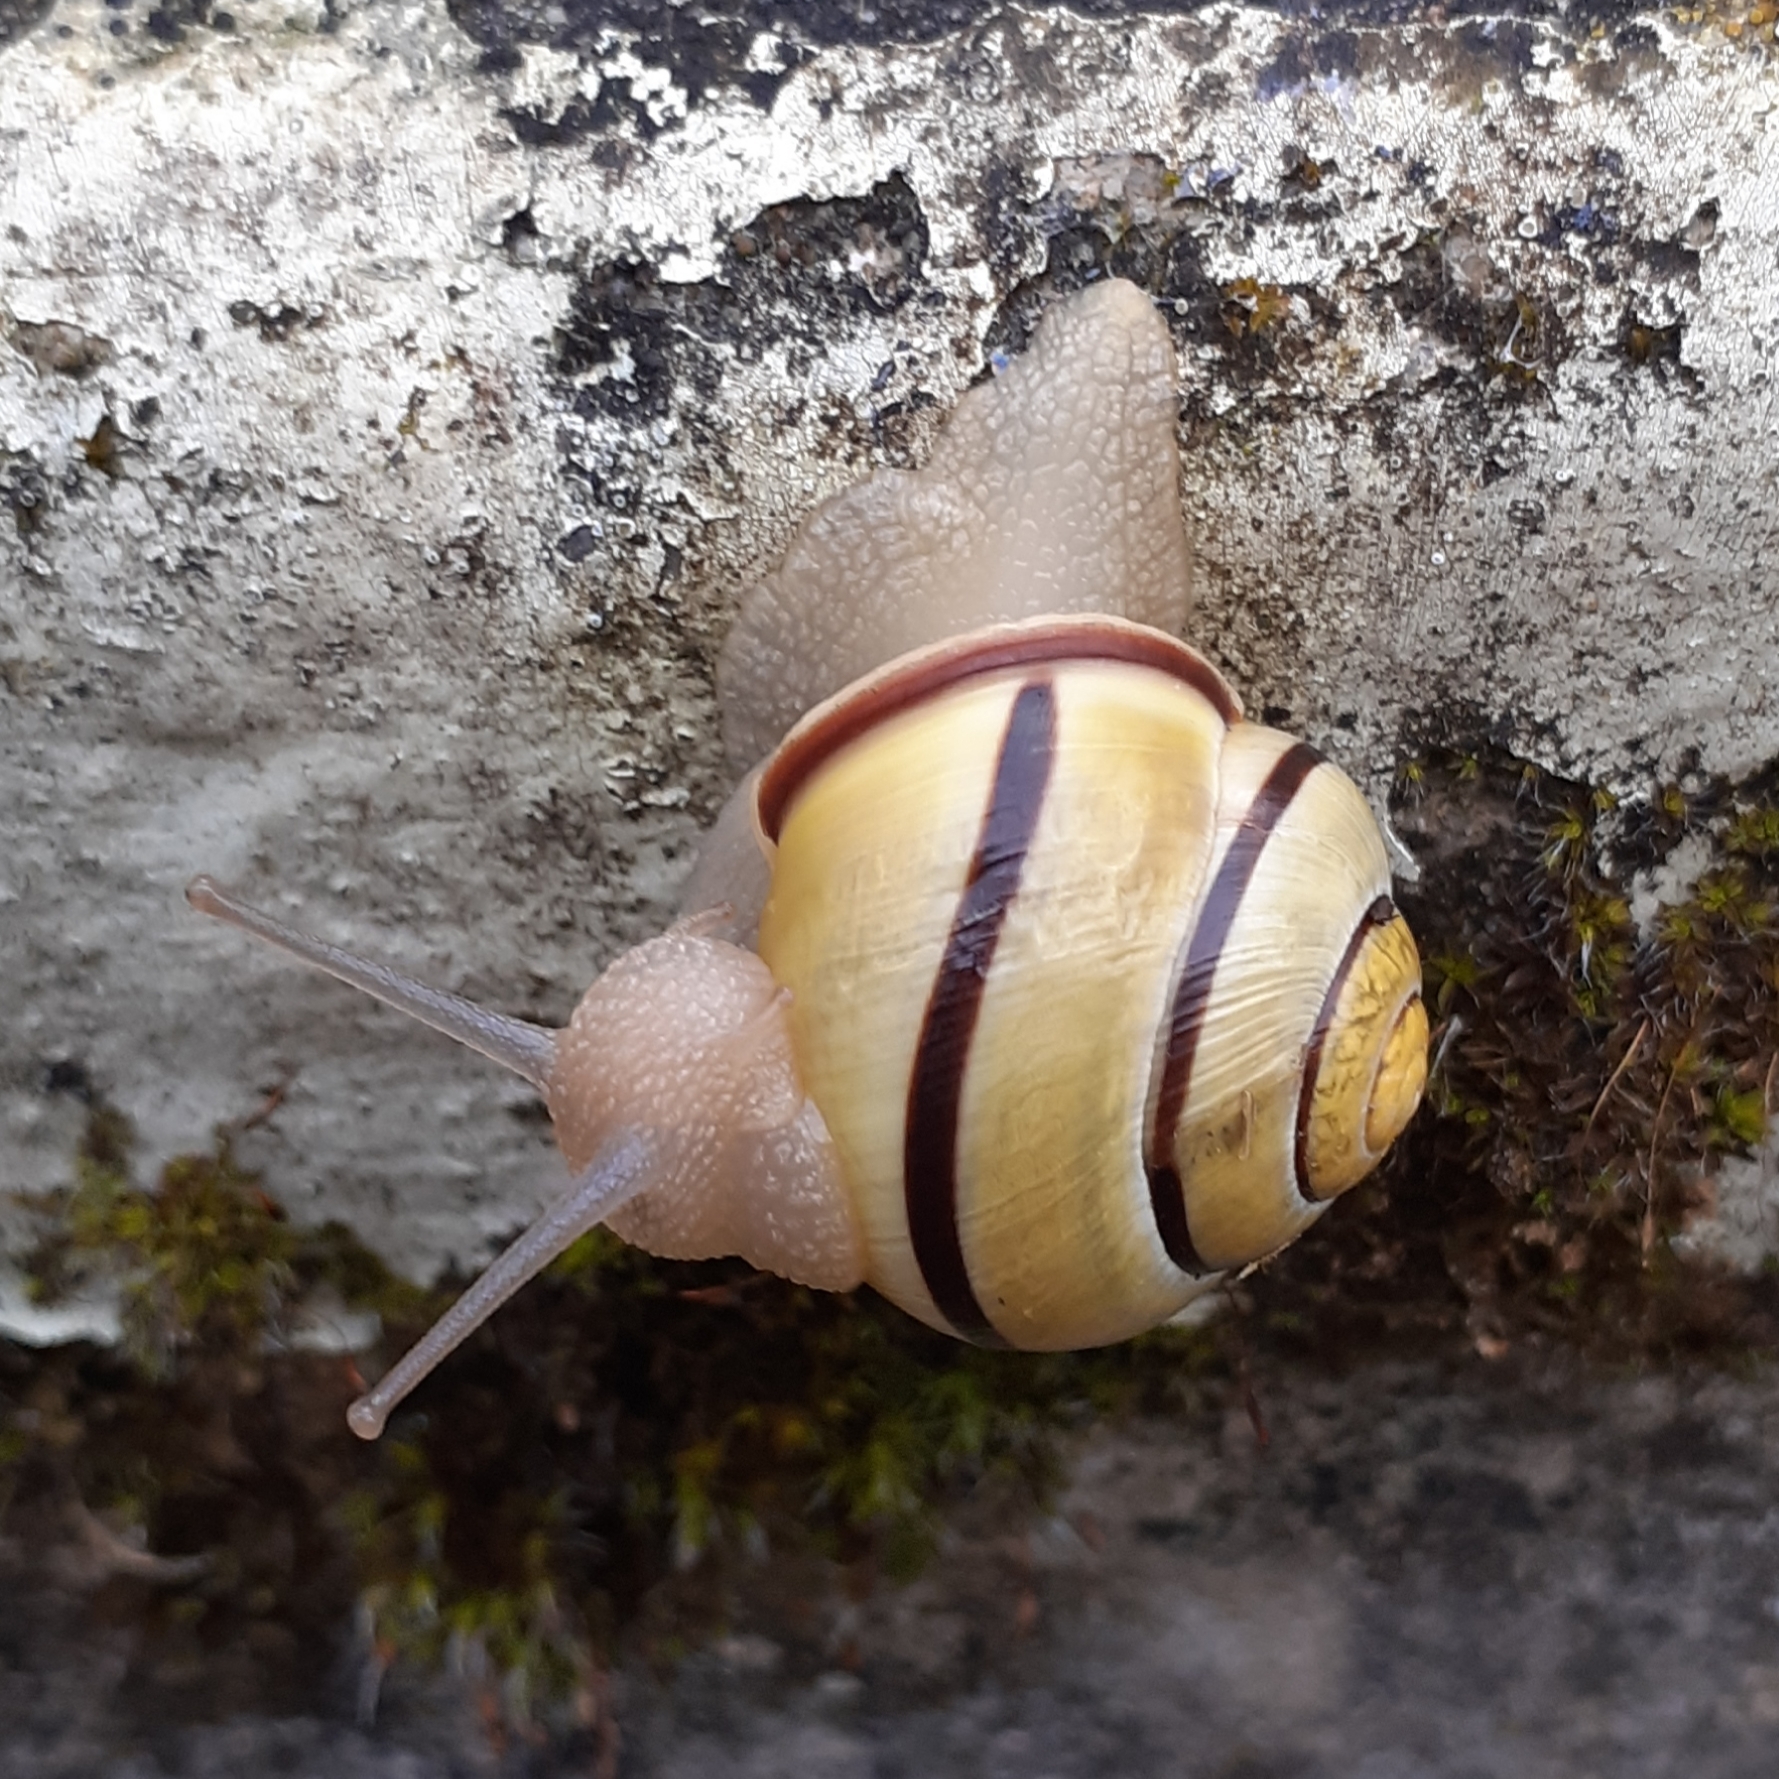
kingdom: Animalia
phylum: Mollusca
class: Gastropoda
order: Stylommatophora
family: Helicidae
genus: Cepaea
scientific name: Cepaea nemoralis
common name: Grovesnail
